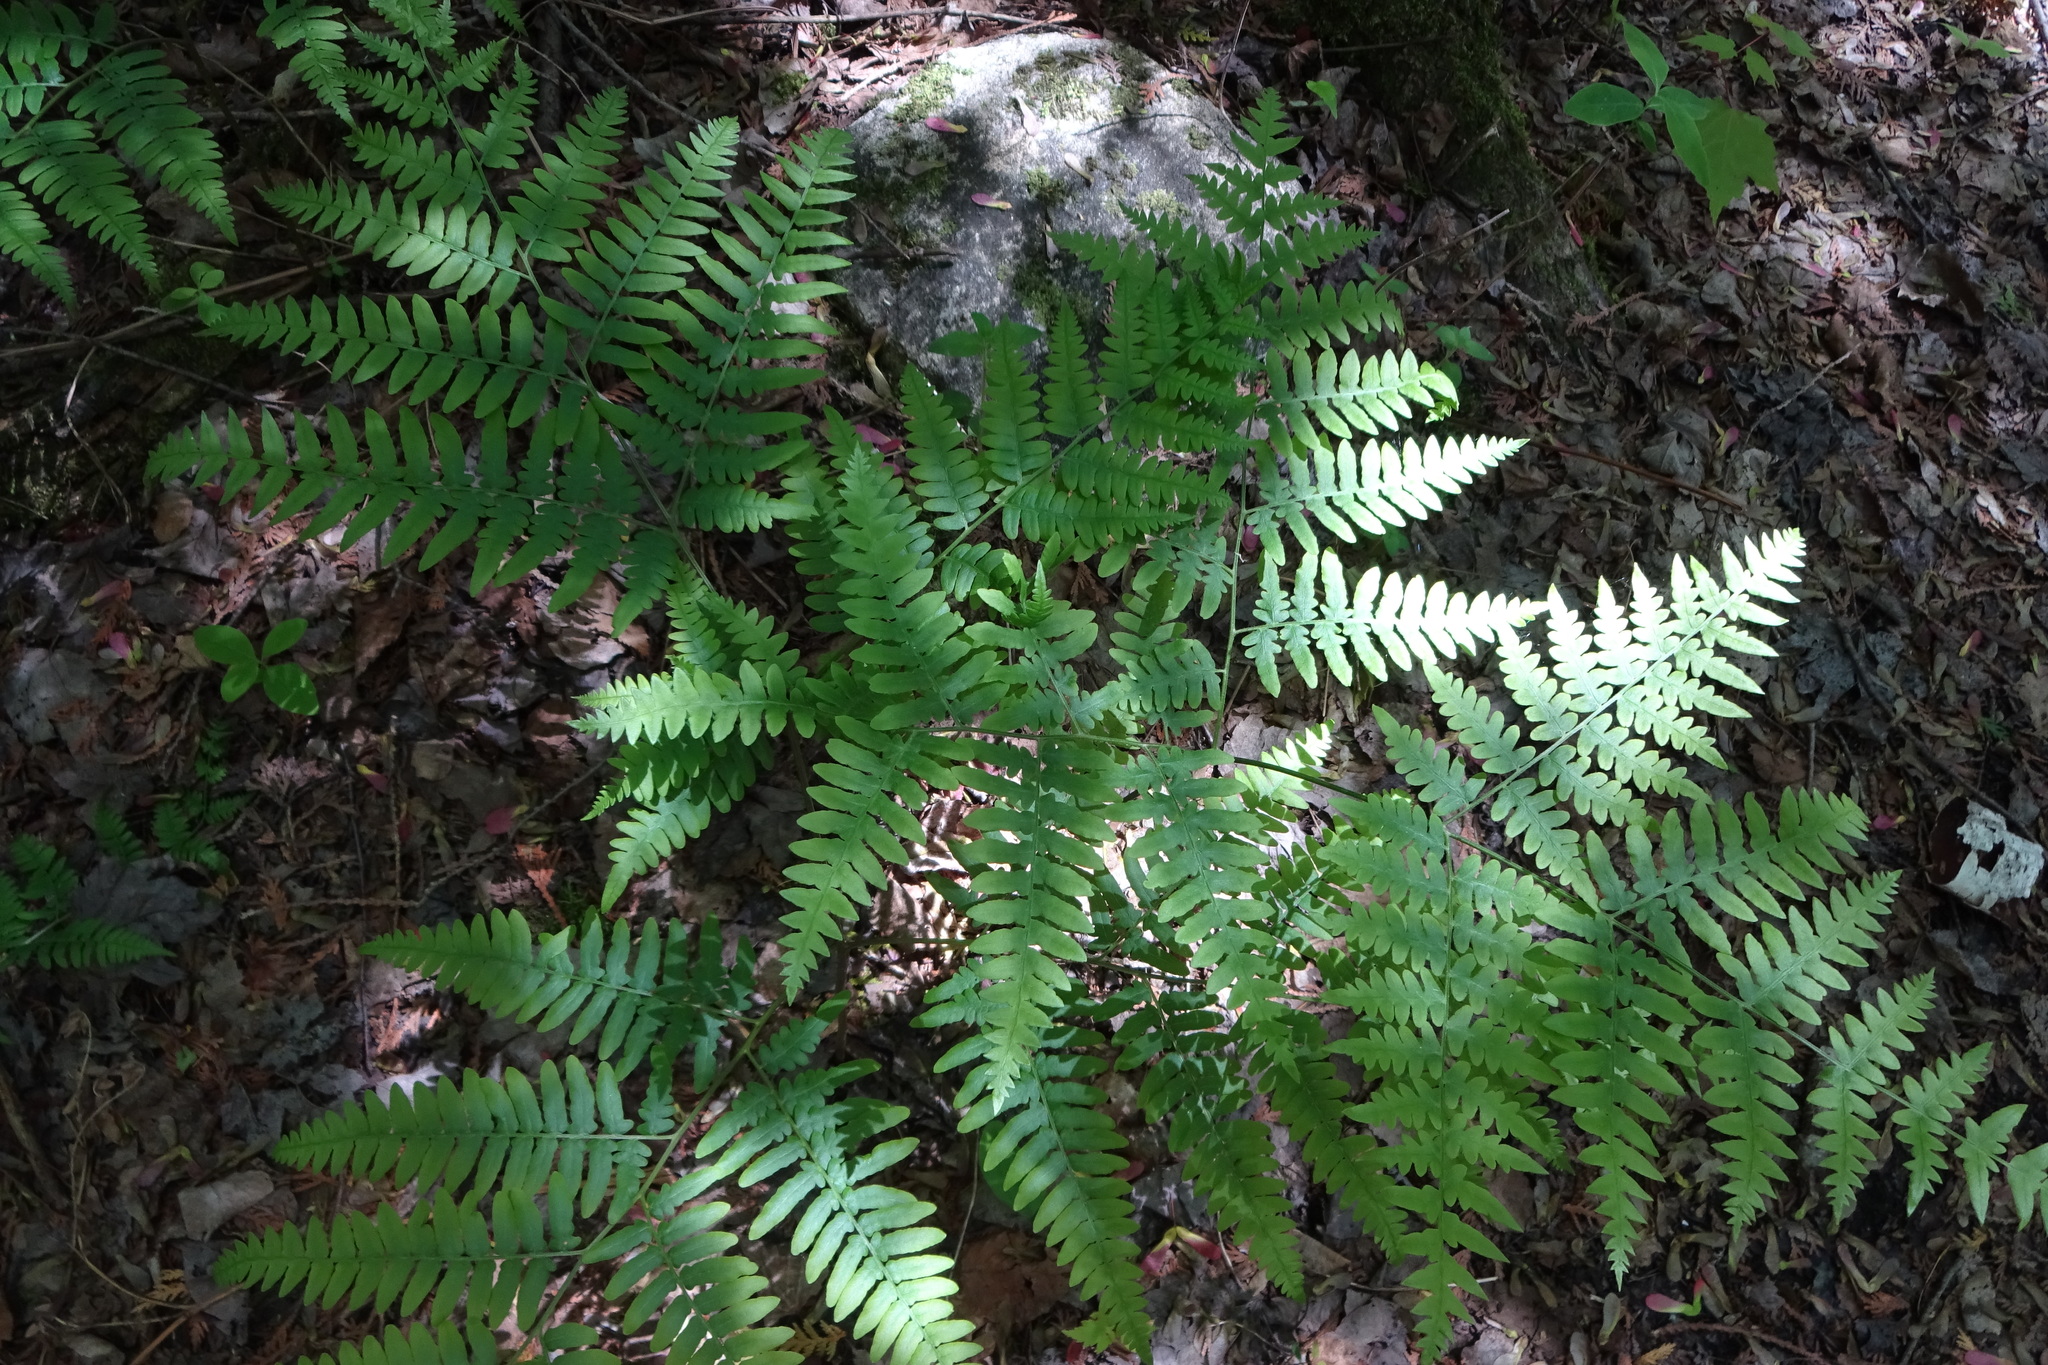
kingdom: Plantae
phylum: Tracheophyta
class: Polypodiopsida
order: Polypodiales
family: Dennstaedtiaceae
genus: Pteridium
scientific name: Pteridium aquilinum
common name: Bracken
